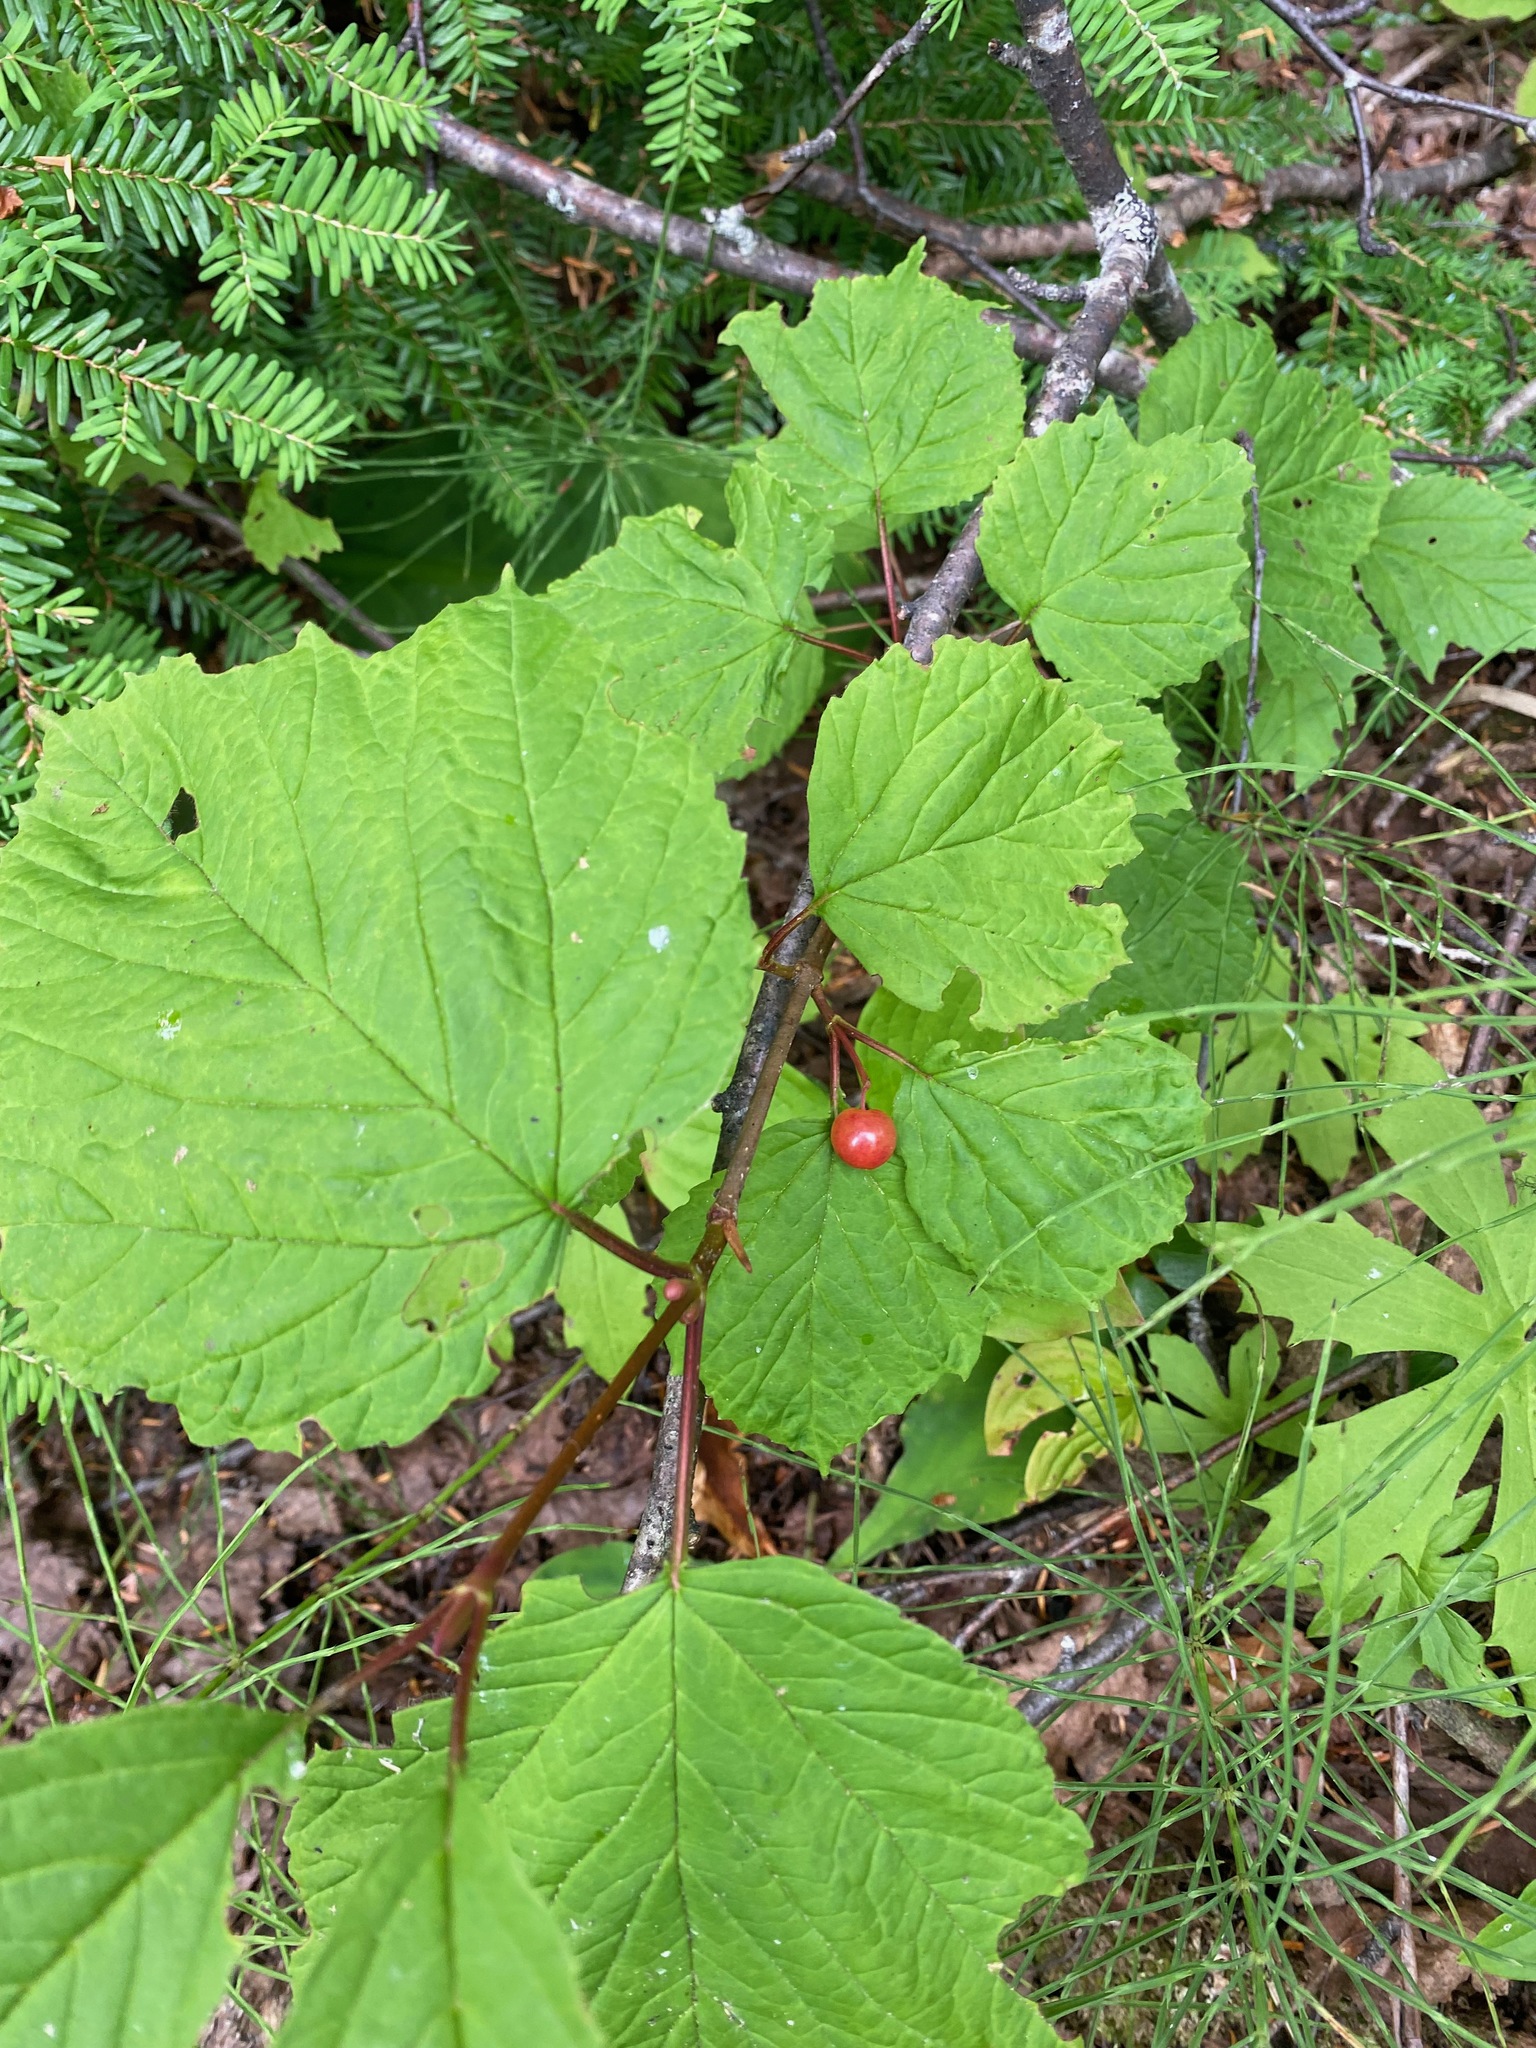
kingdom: Plantae
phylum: Tracheophyta
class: Magnoliopsida
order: Dipsacales
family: Viburnaceae
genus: Viburnum
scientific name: Viburnum edule
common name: Mooseberry
